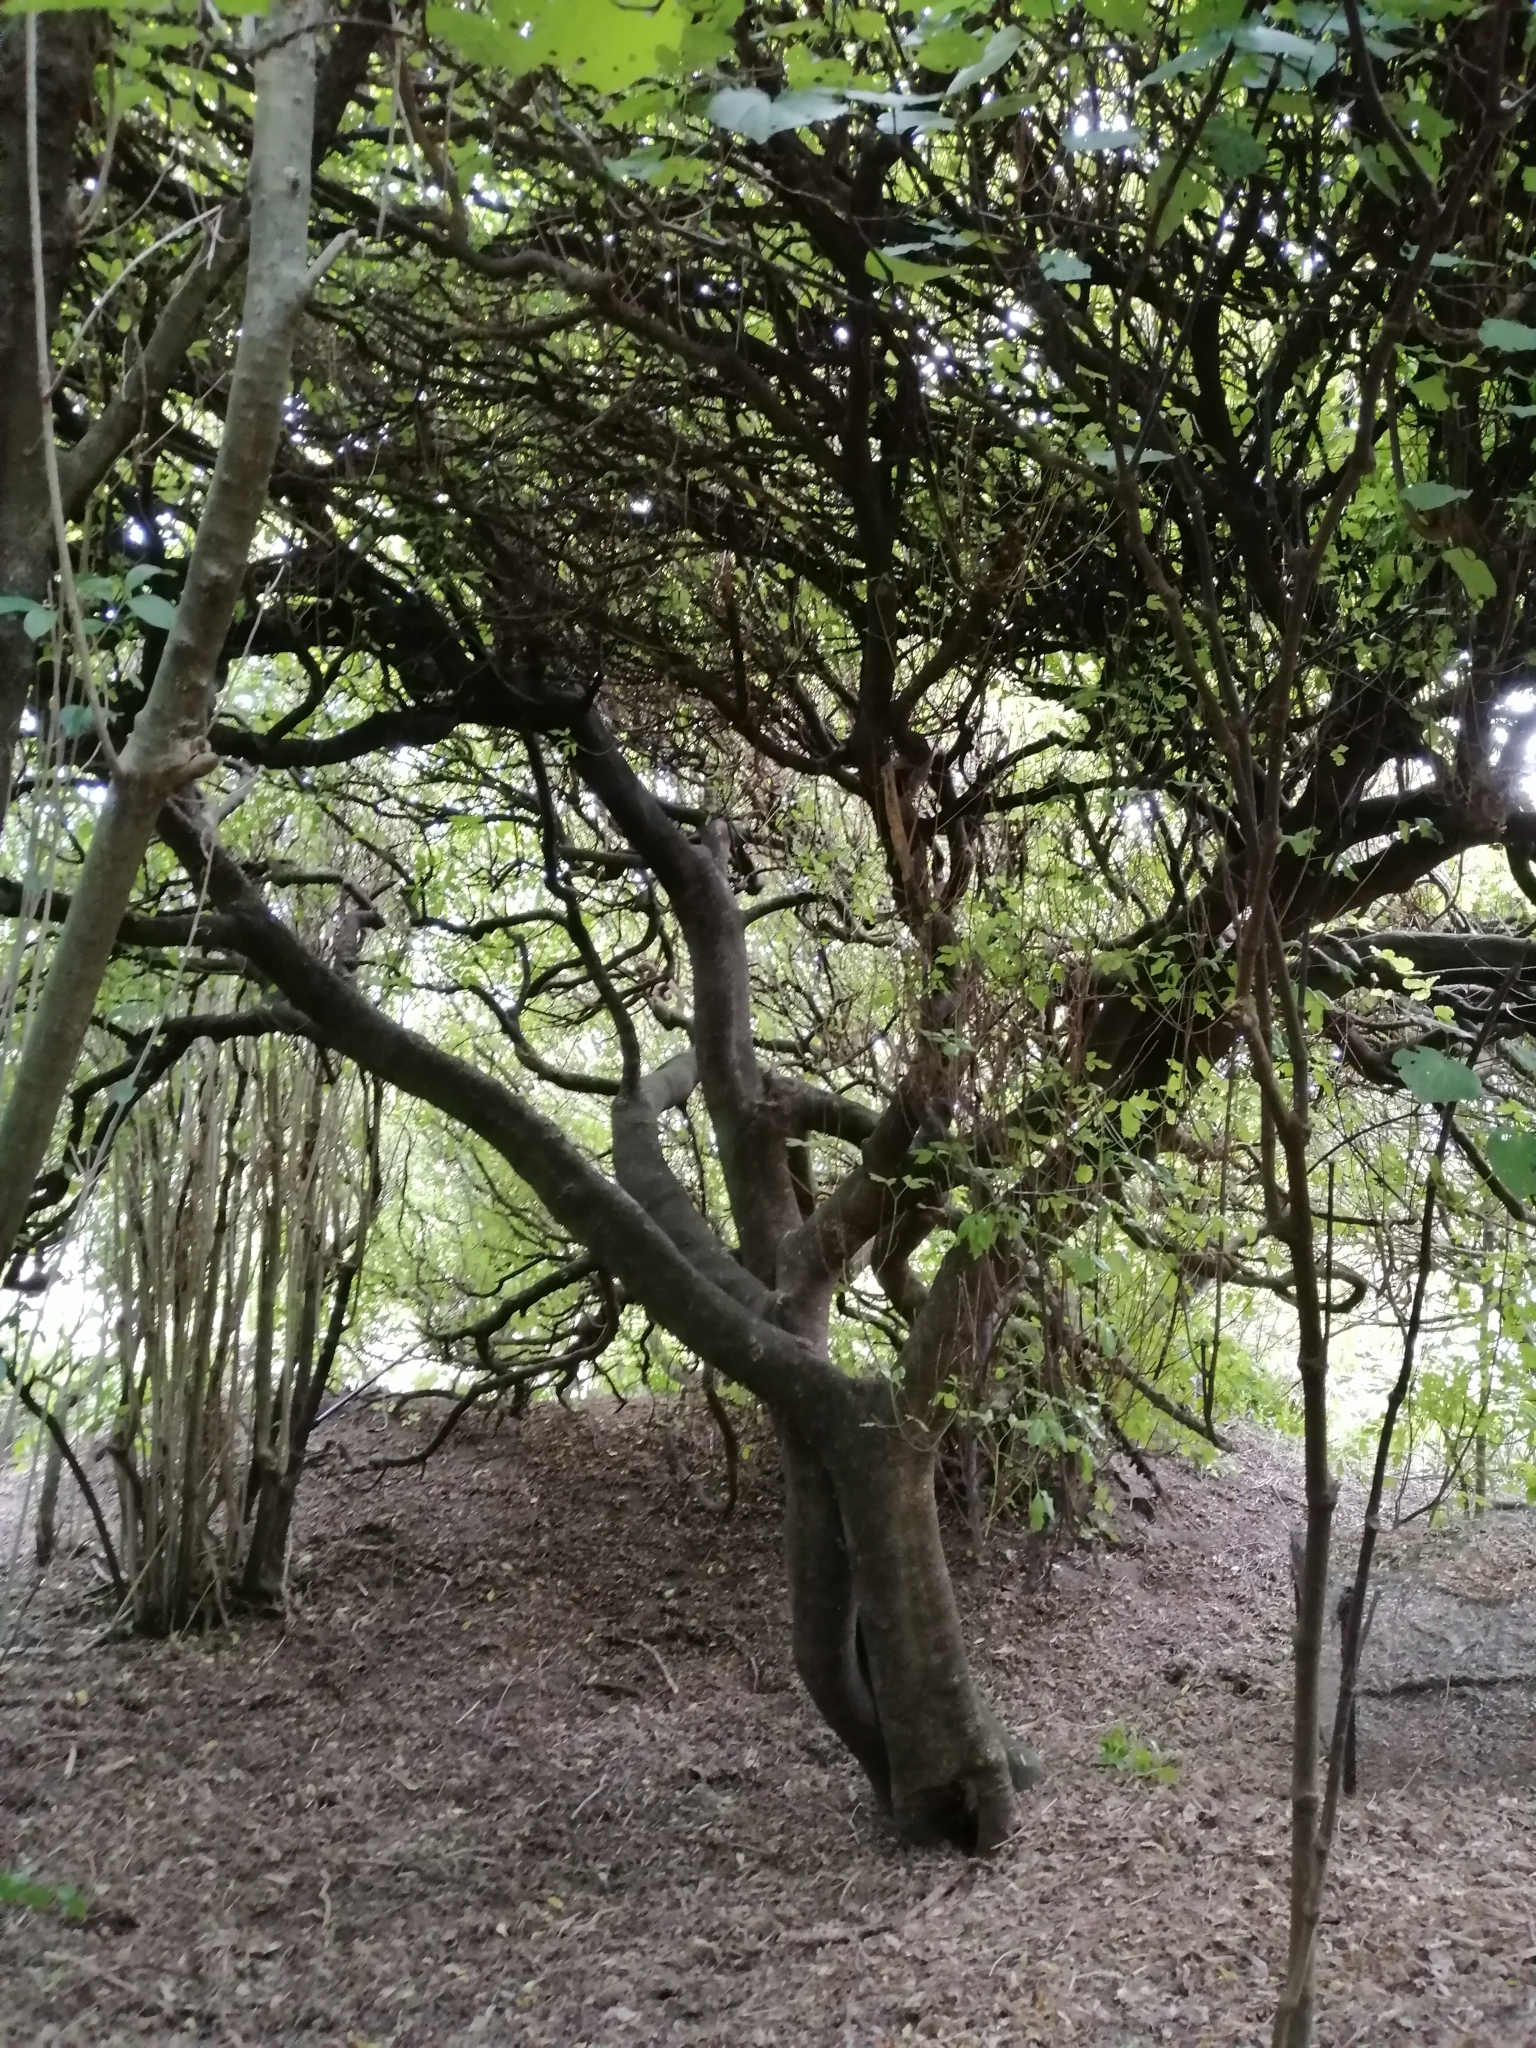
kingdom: Plantae
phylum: Tracheophyta
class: Magnoliopsida
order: Sapindales
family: Rutaceae
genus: Melicope
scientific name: Melicope ternata
